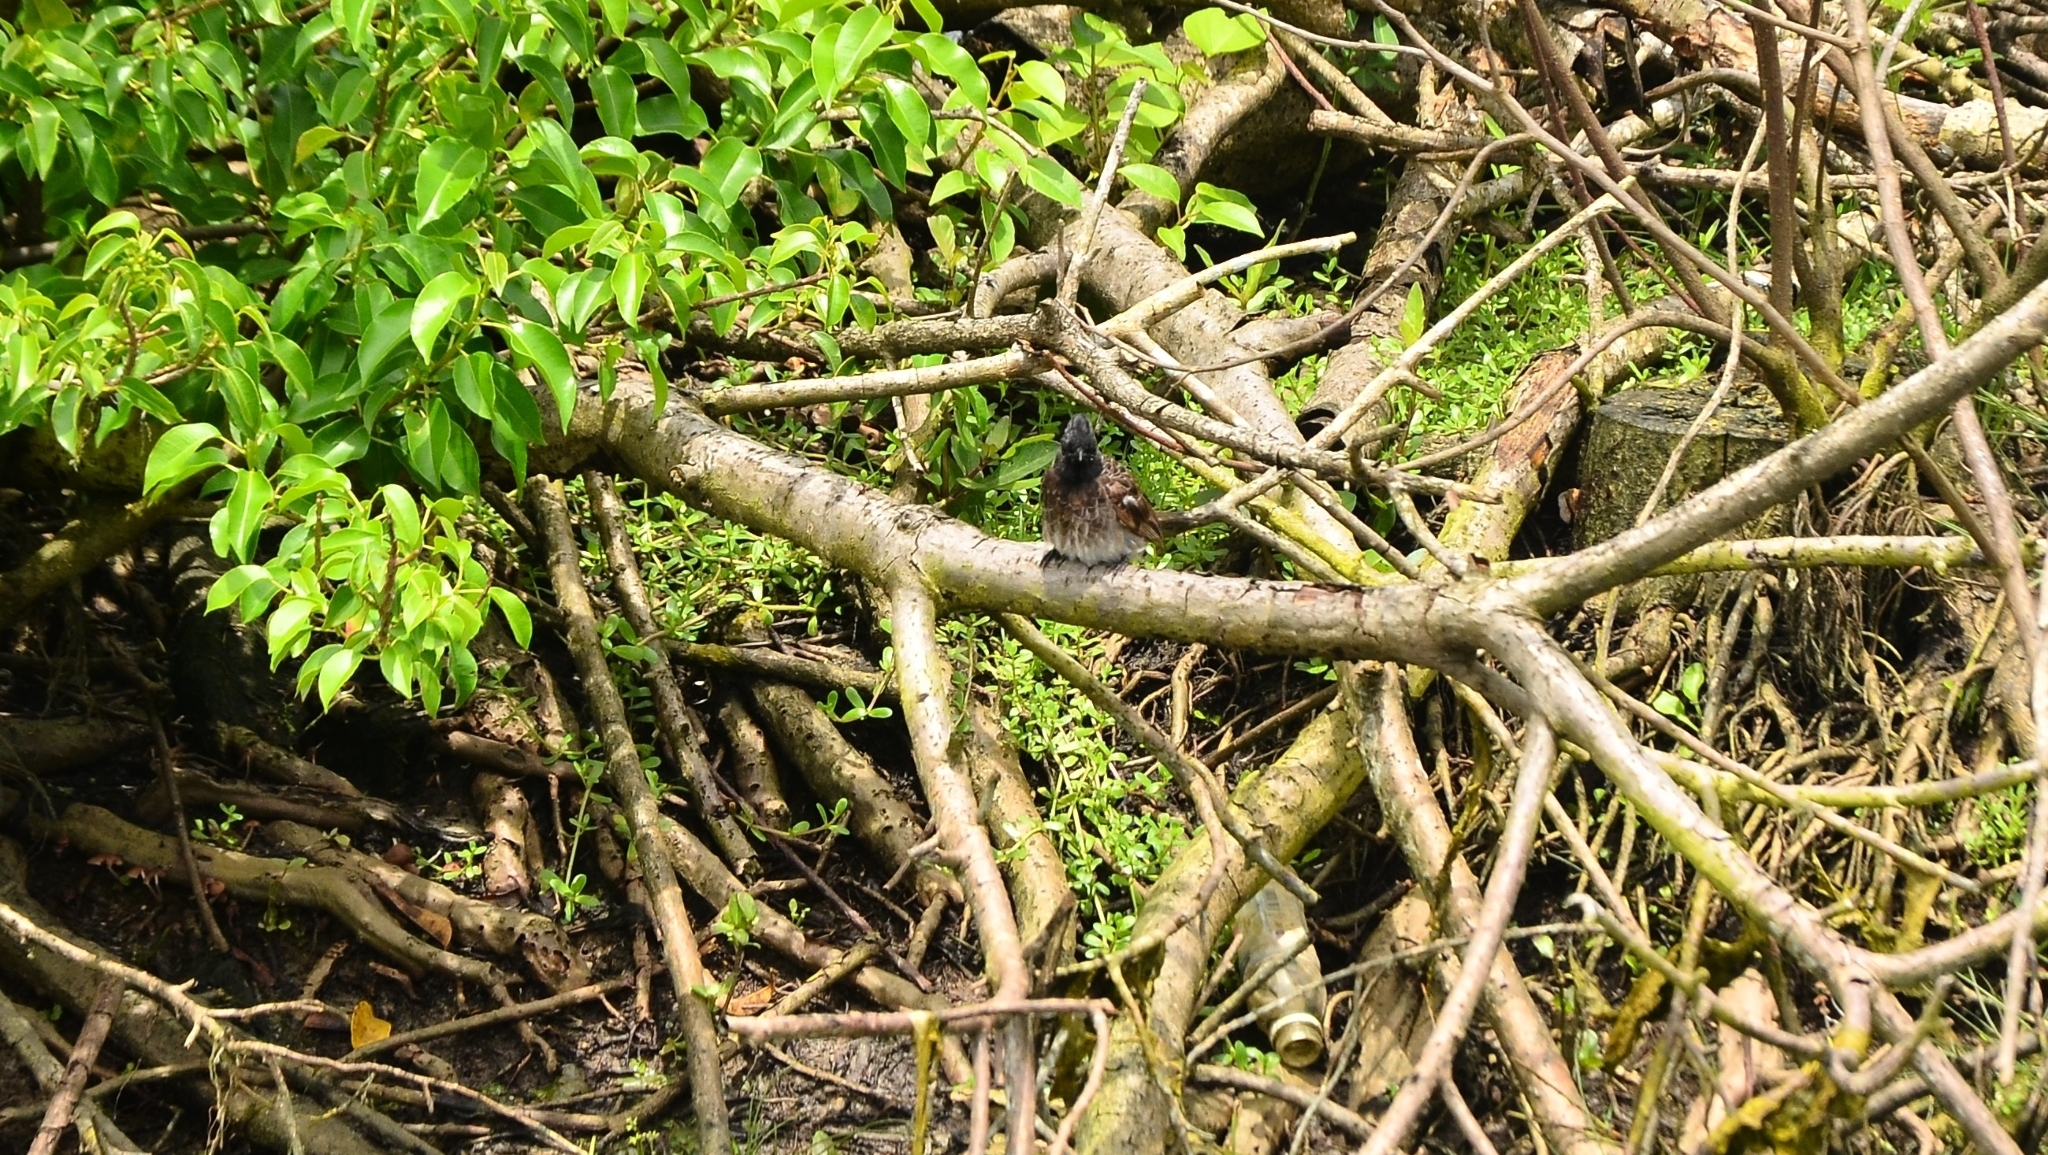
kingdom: Animalia
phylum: Chordata
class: Aves
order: Passeriformes
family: Pycnonotidae
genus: Pycnonotus
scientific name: Pycnonotus cafer
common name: Red-vented bulbul
